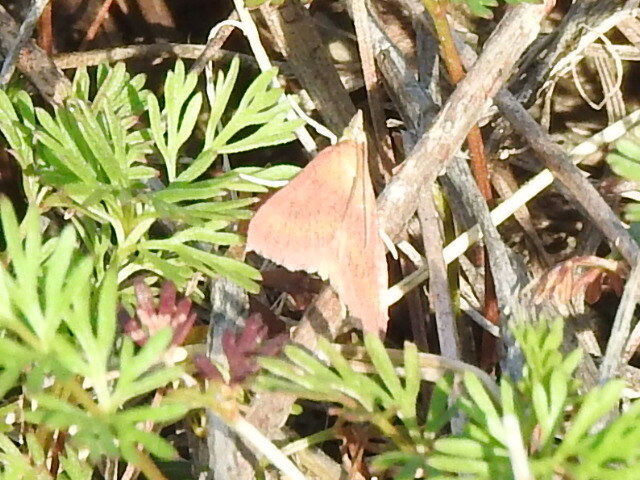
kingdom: Animalia
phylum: Arthropoda
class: Insecta
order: Lepidoptera
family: Crambidae
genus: Pyrausta
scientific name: Pyrausta laticlavia
